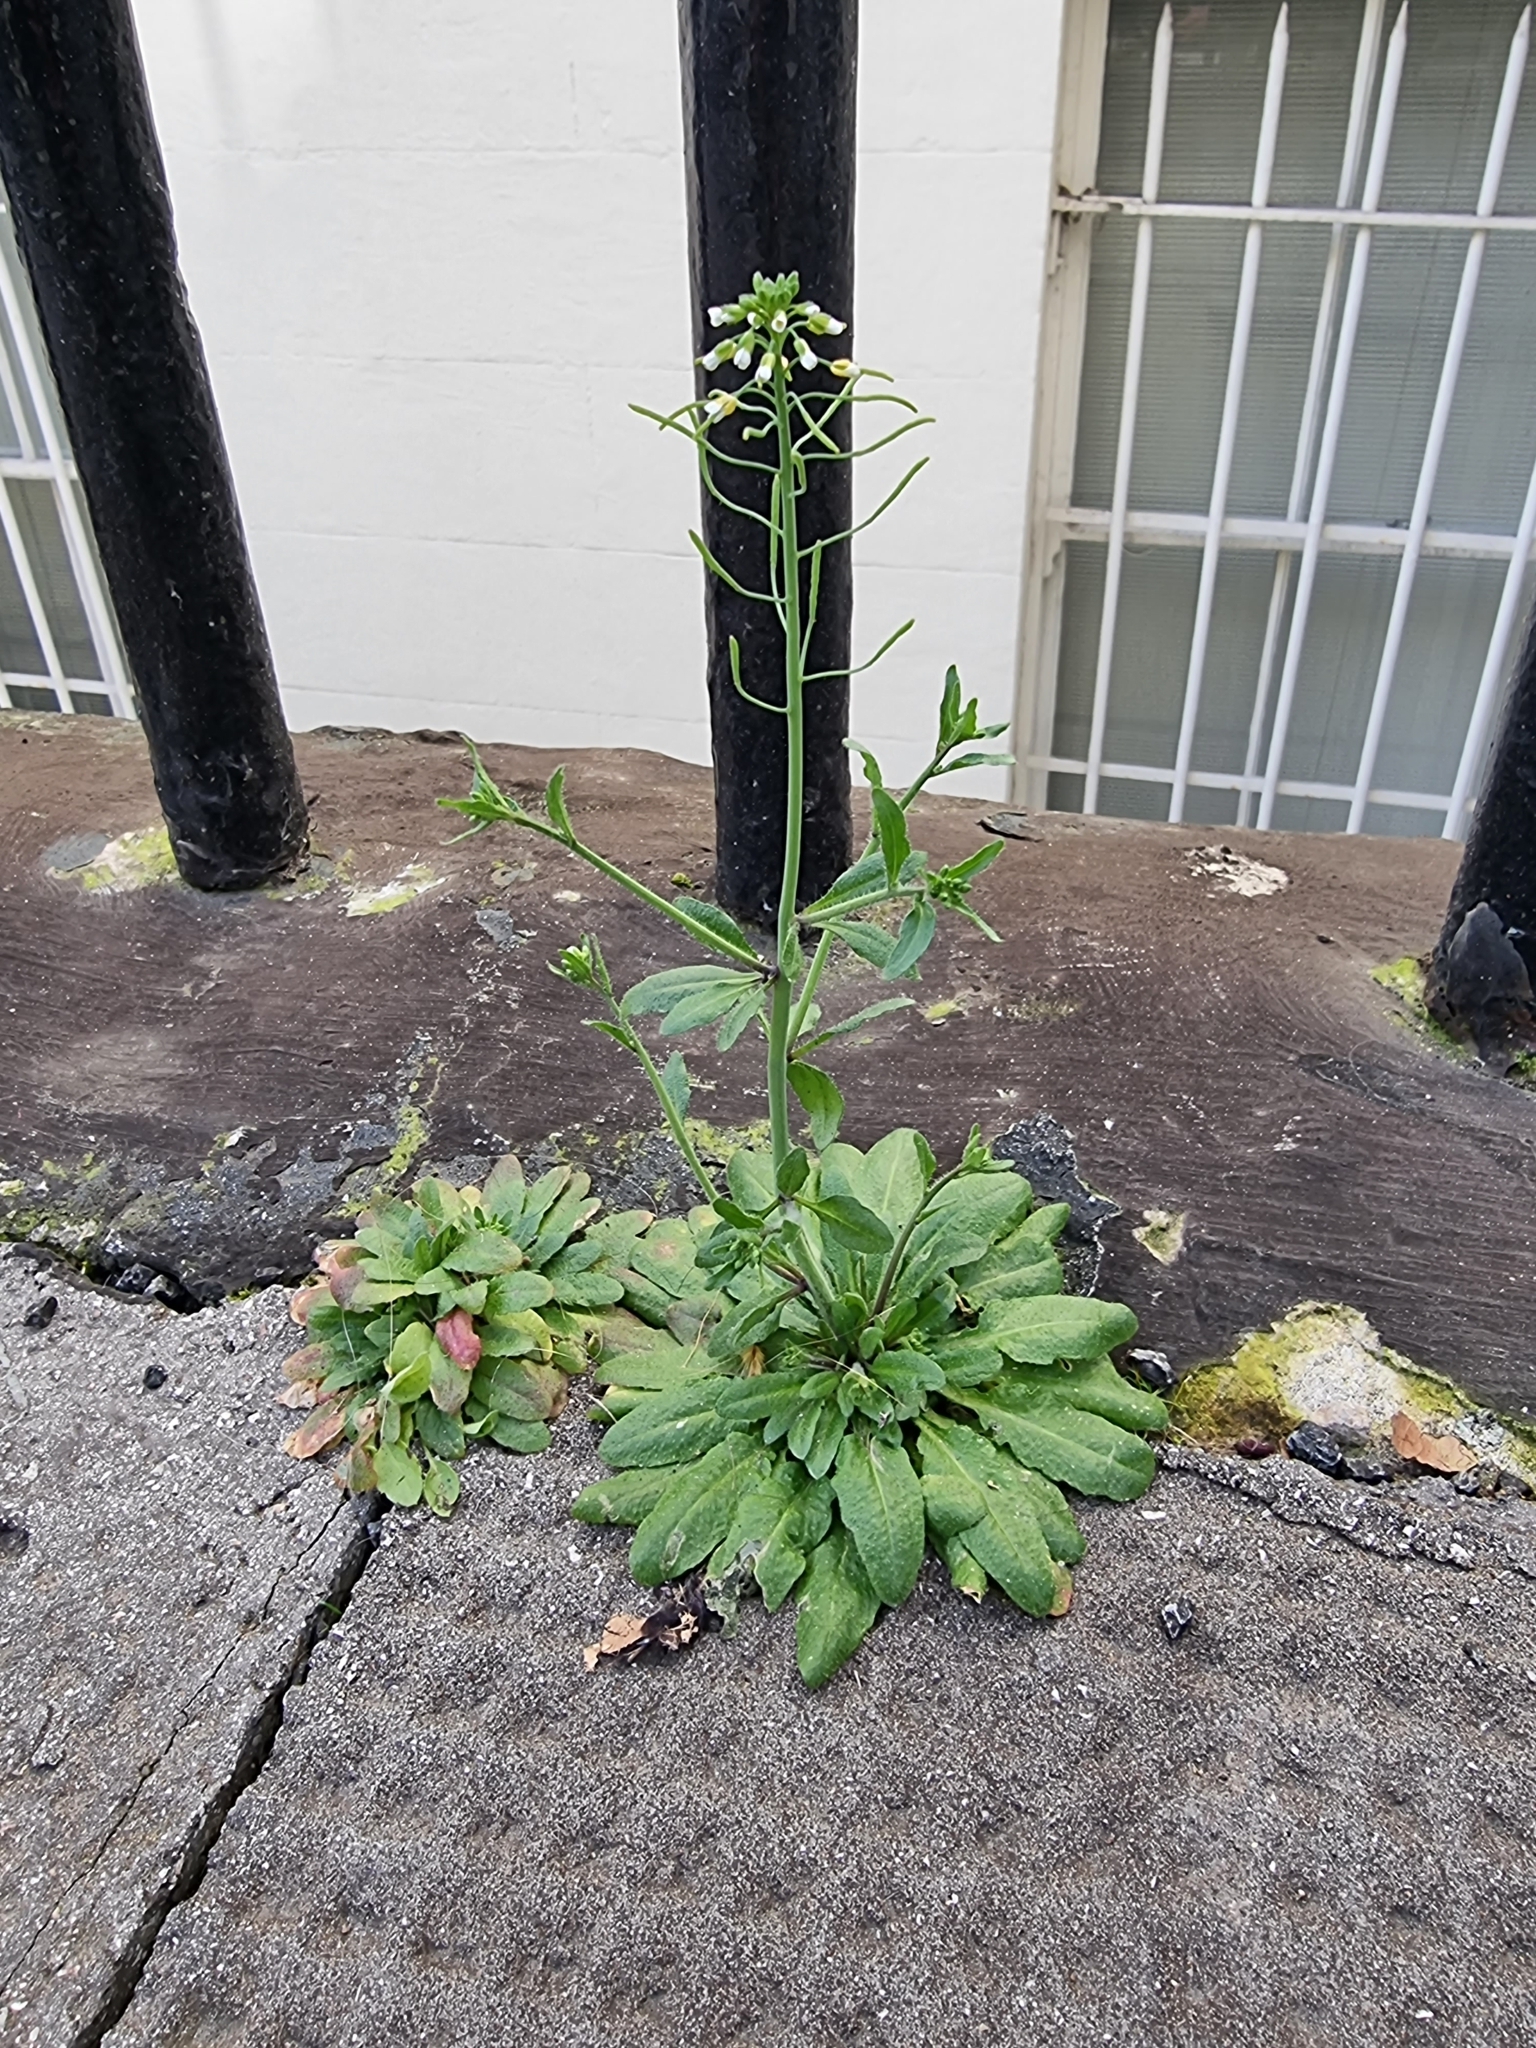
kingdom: Plantae
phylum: Tracheophyta
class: Magnoliopsida
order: Brassicales
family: Brassicaceae
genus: Arabidopsis
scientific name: Arabidopsis thaliana
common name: Thale cress
